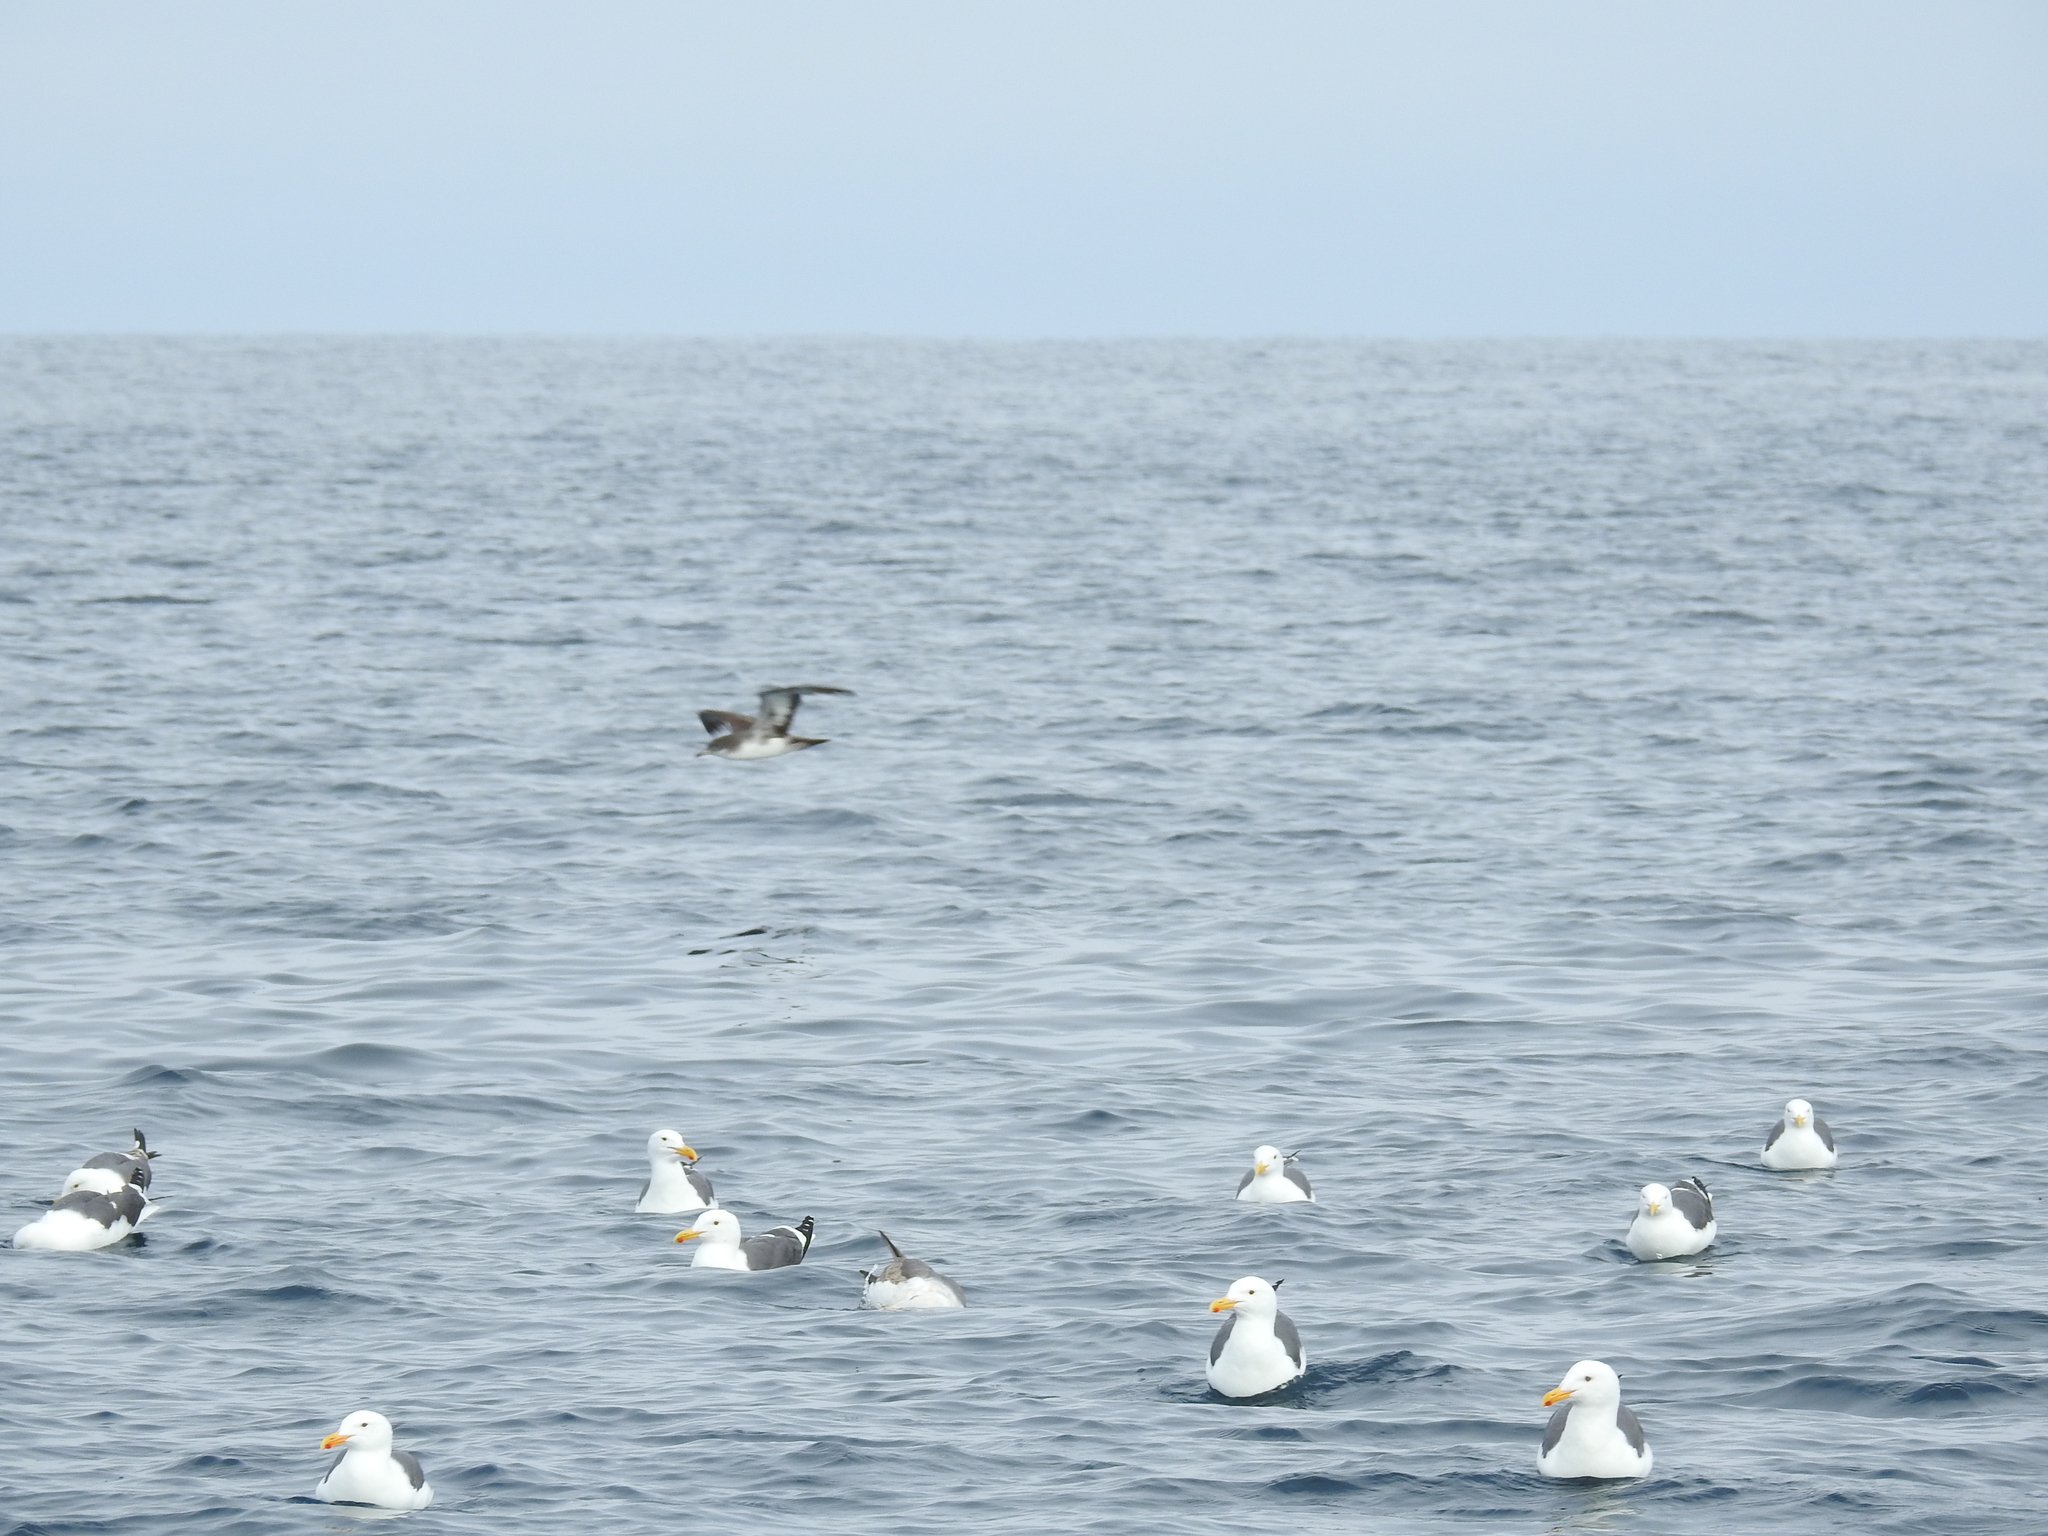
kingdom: Animalia
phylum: Chordata
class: Aves
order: Charadriiformes
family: Laridae
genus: Larus
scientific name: Larus occidentalis
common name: Western gull
